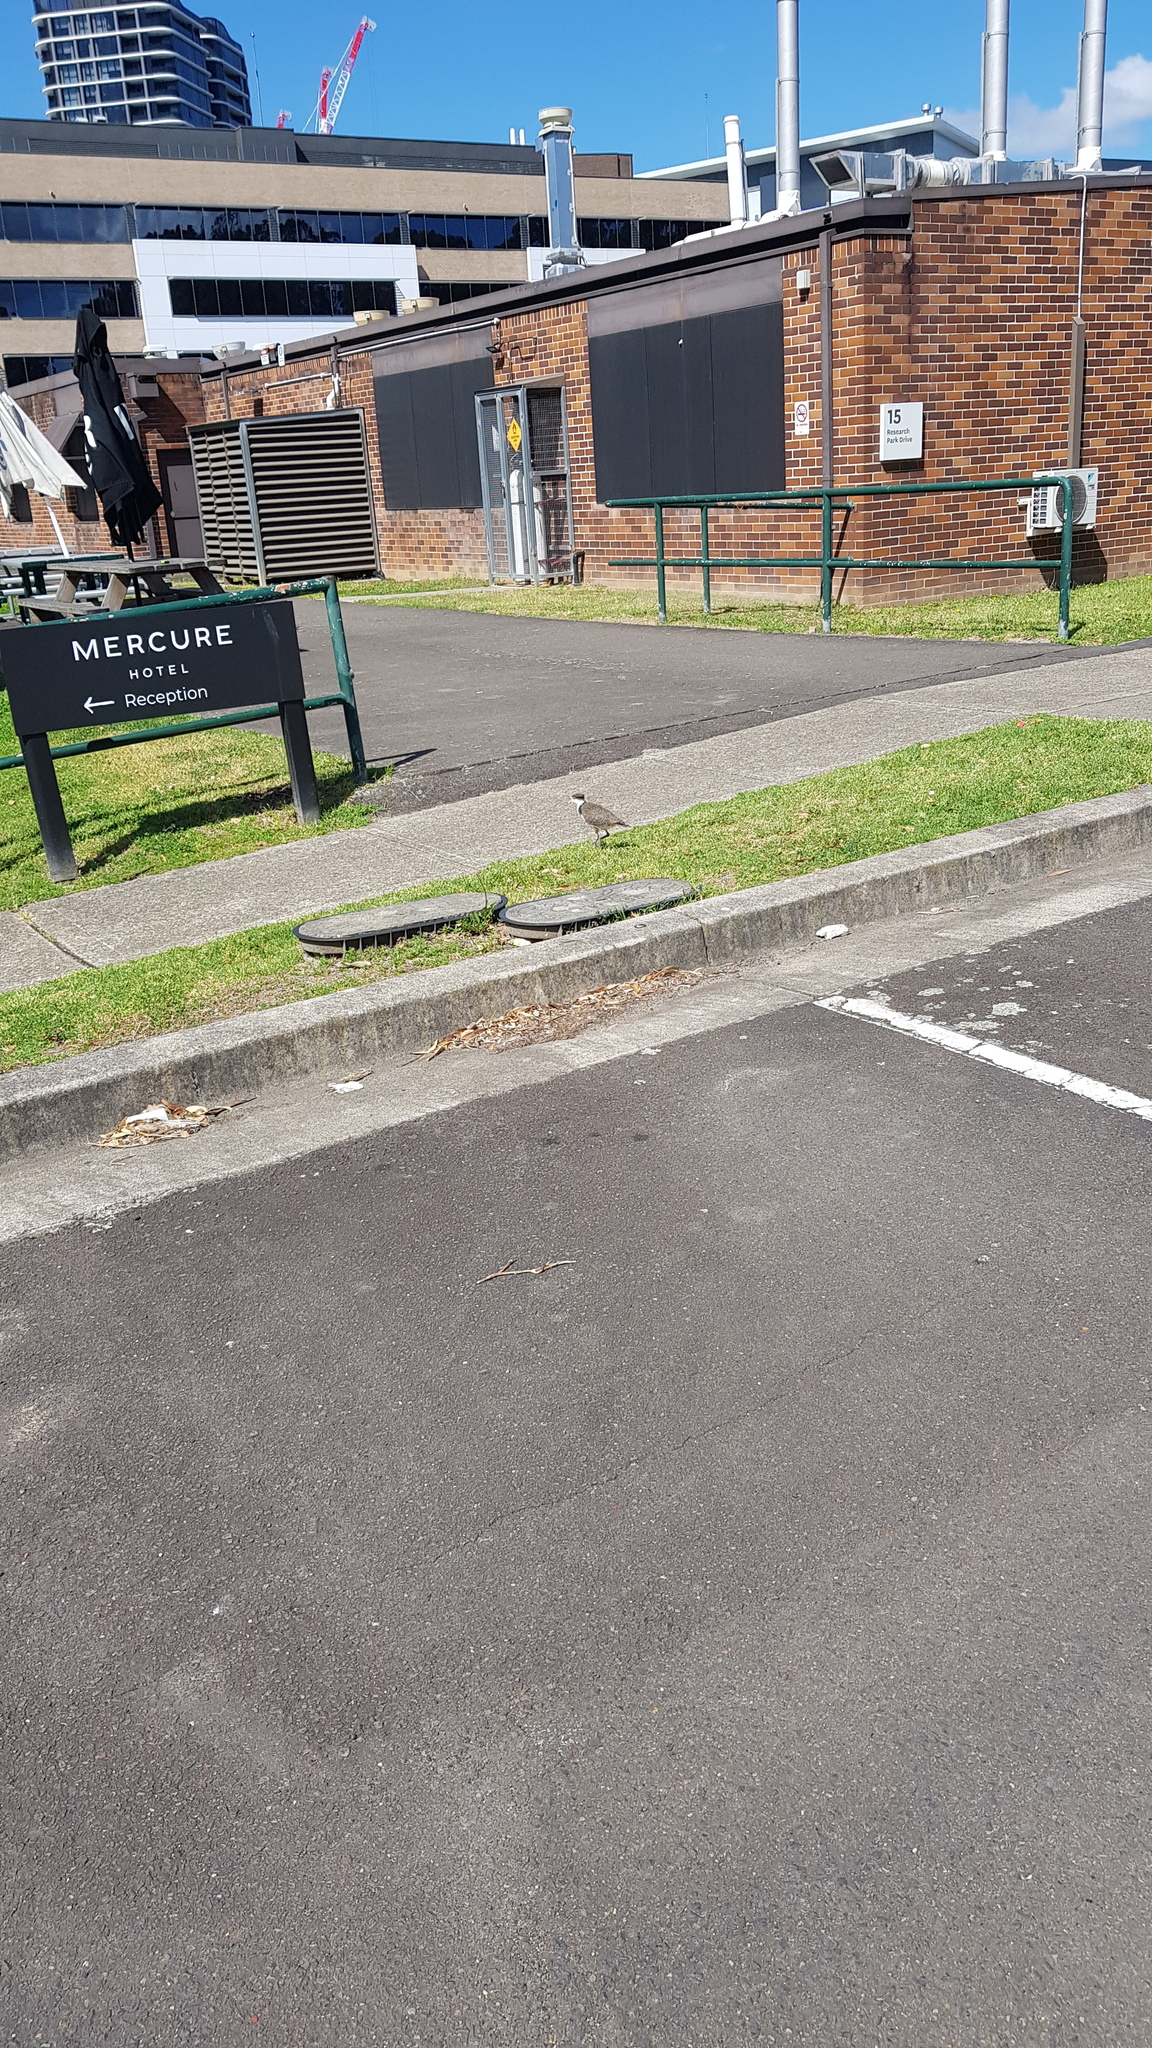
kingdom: Animalia
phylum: Chordata
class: Aves
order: Charadriiformes
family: Charadriidae
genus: Vanellus
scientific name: Vanellus miles
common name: Masked lapwing
